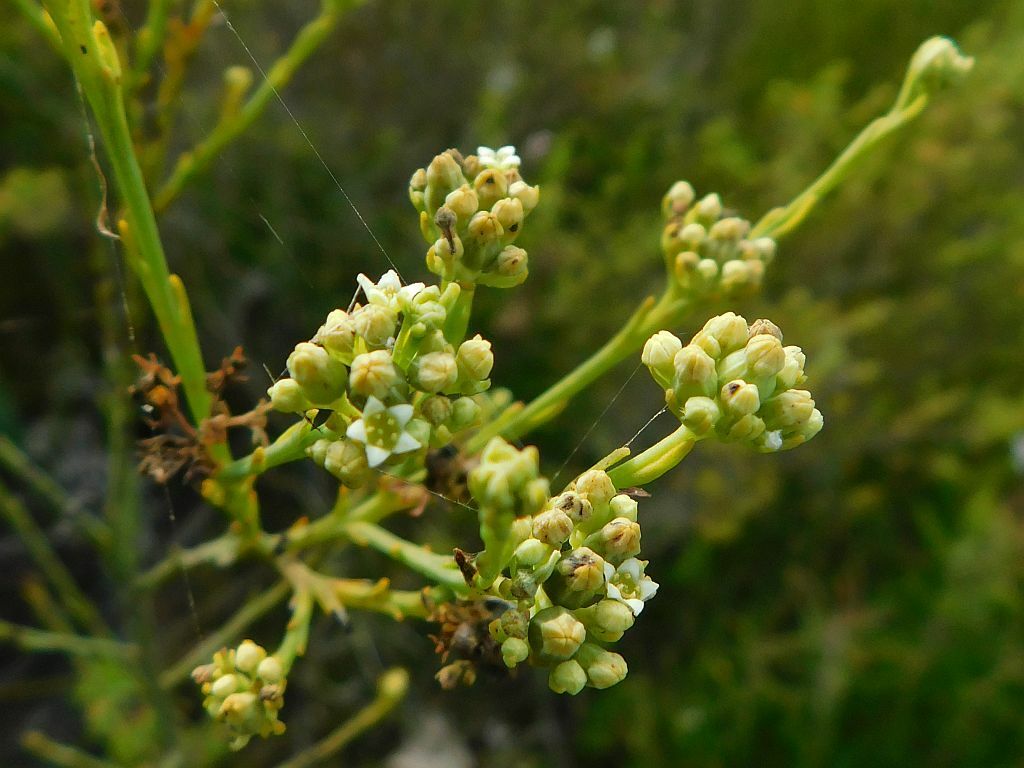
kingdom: Plantae
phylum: Tracheophyta
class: Magnoliopsida
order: Santalales
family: Thesiaceae
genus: Thesium
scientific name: Thesium strictum
